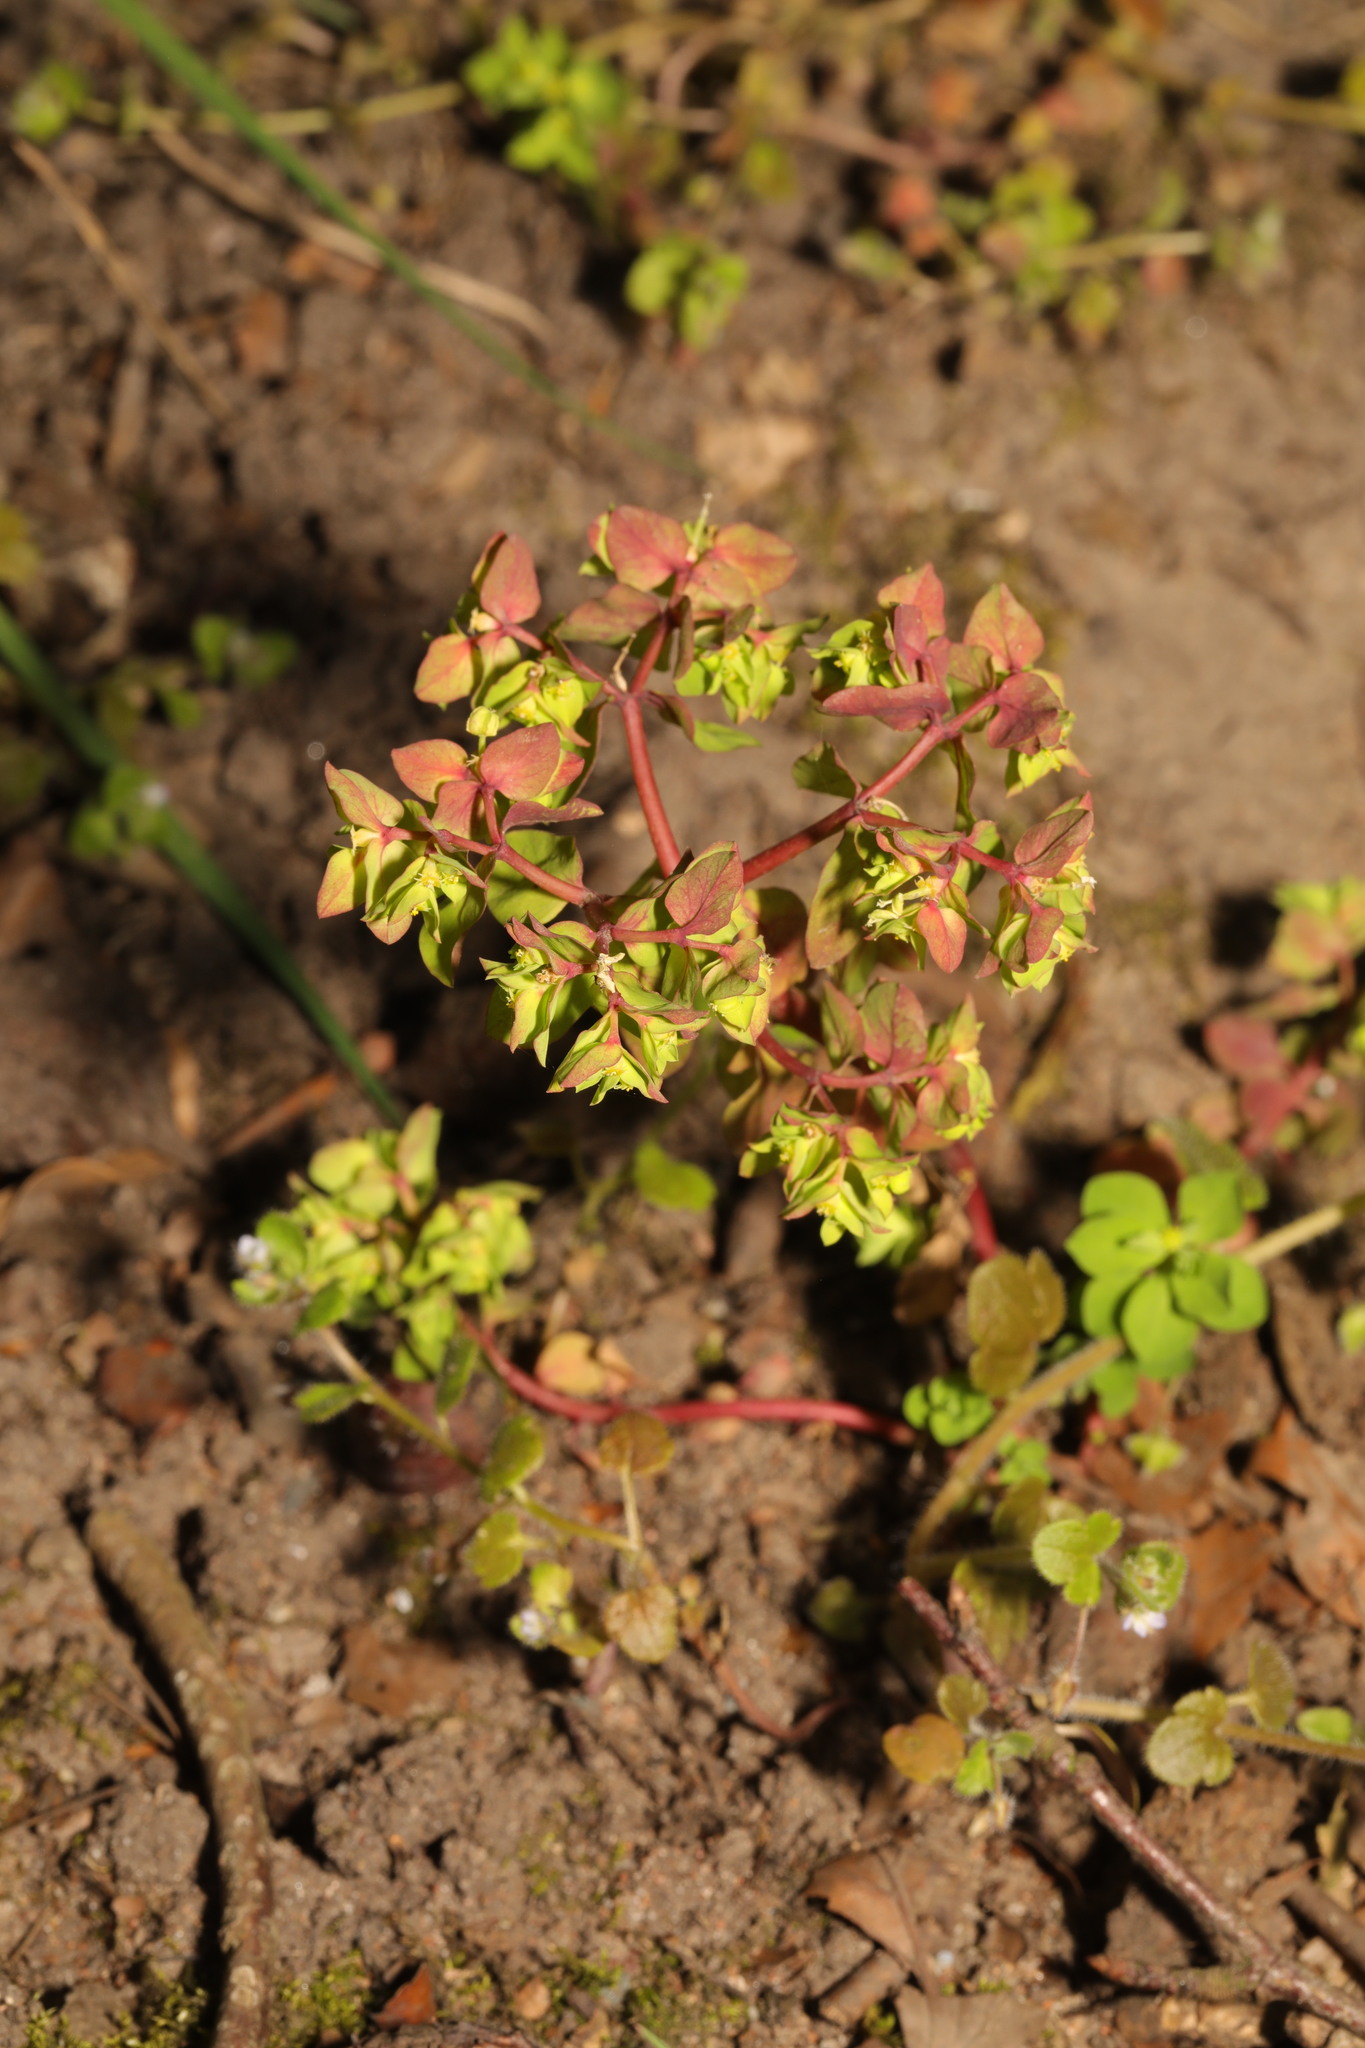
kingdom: Plantae
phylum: Tracheophyta
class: Magnoliopsida
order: Malpighiales
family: Euphorbiaceae
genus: Euphorbia
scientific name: Euphorbia peplus
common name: Petty spurge
